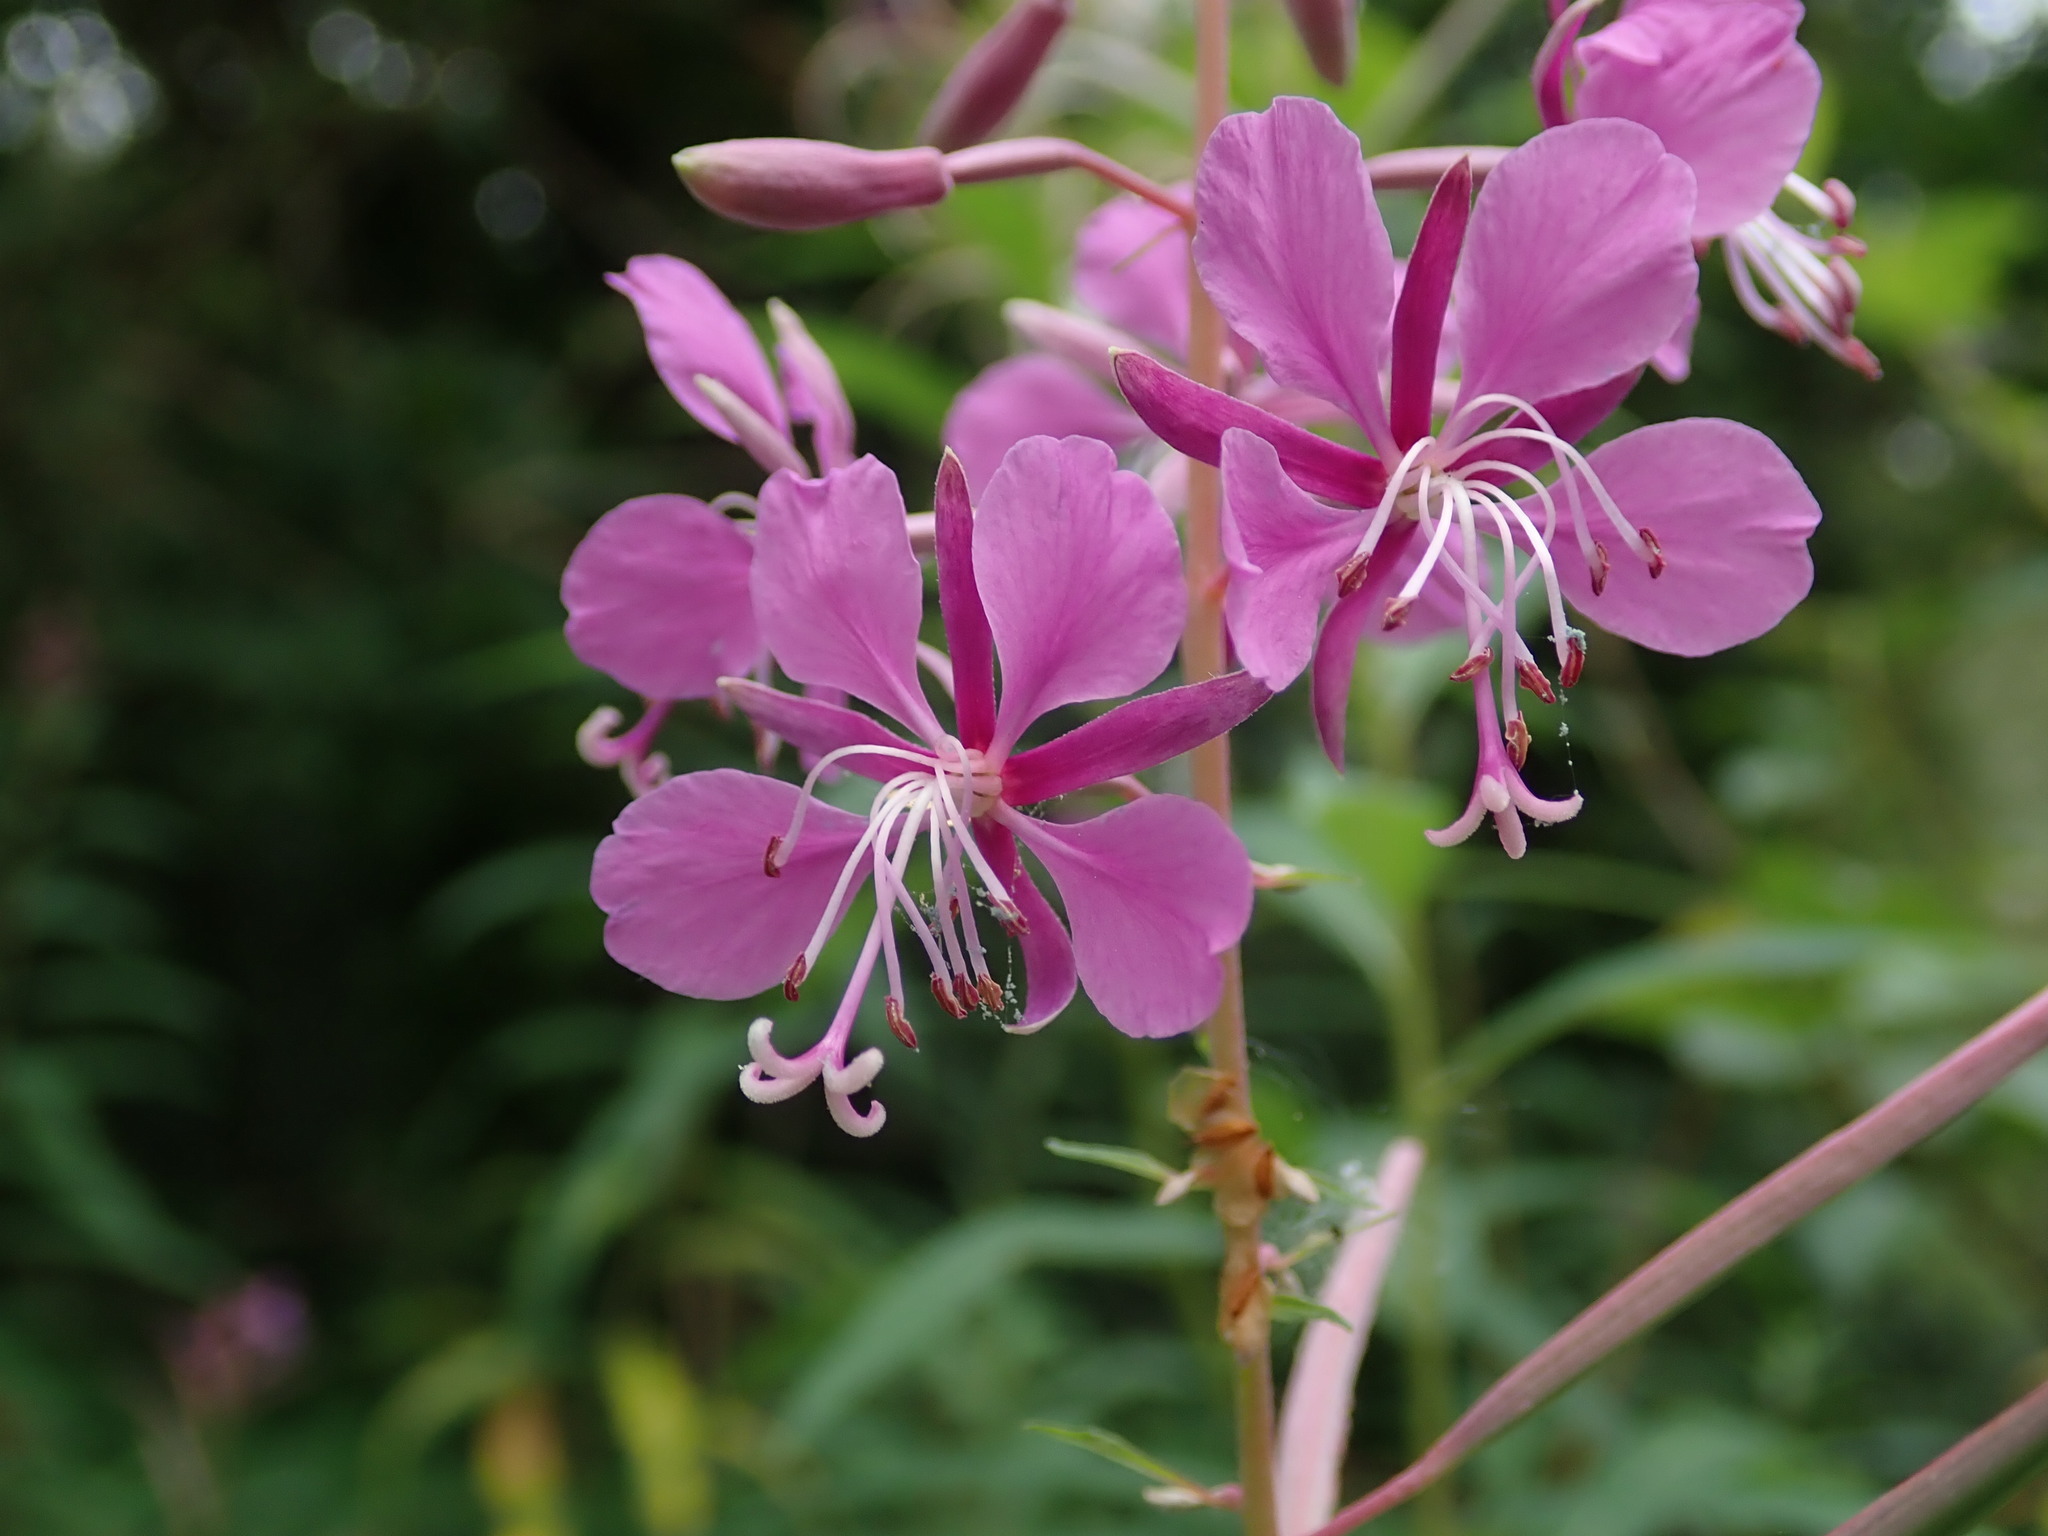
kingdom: Plantae
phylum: Tracheophyta
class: Magnoliopsida
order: Myrtales
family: Onagraceae
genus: Chamaenerion
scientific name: Chamaenerion angustifolium
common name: Fireweed
